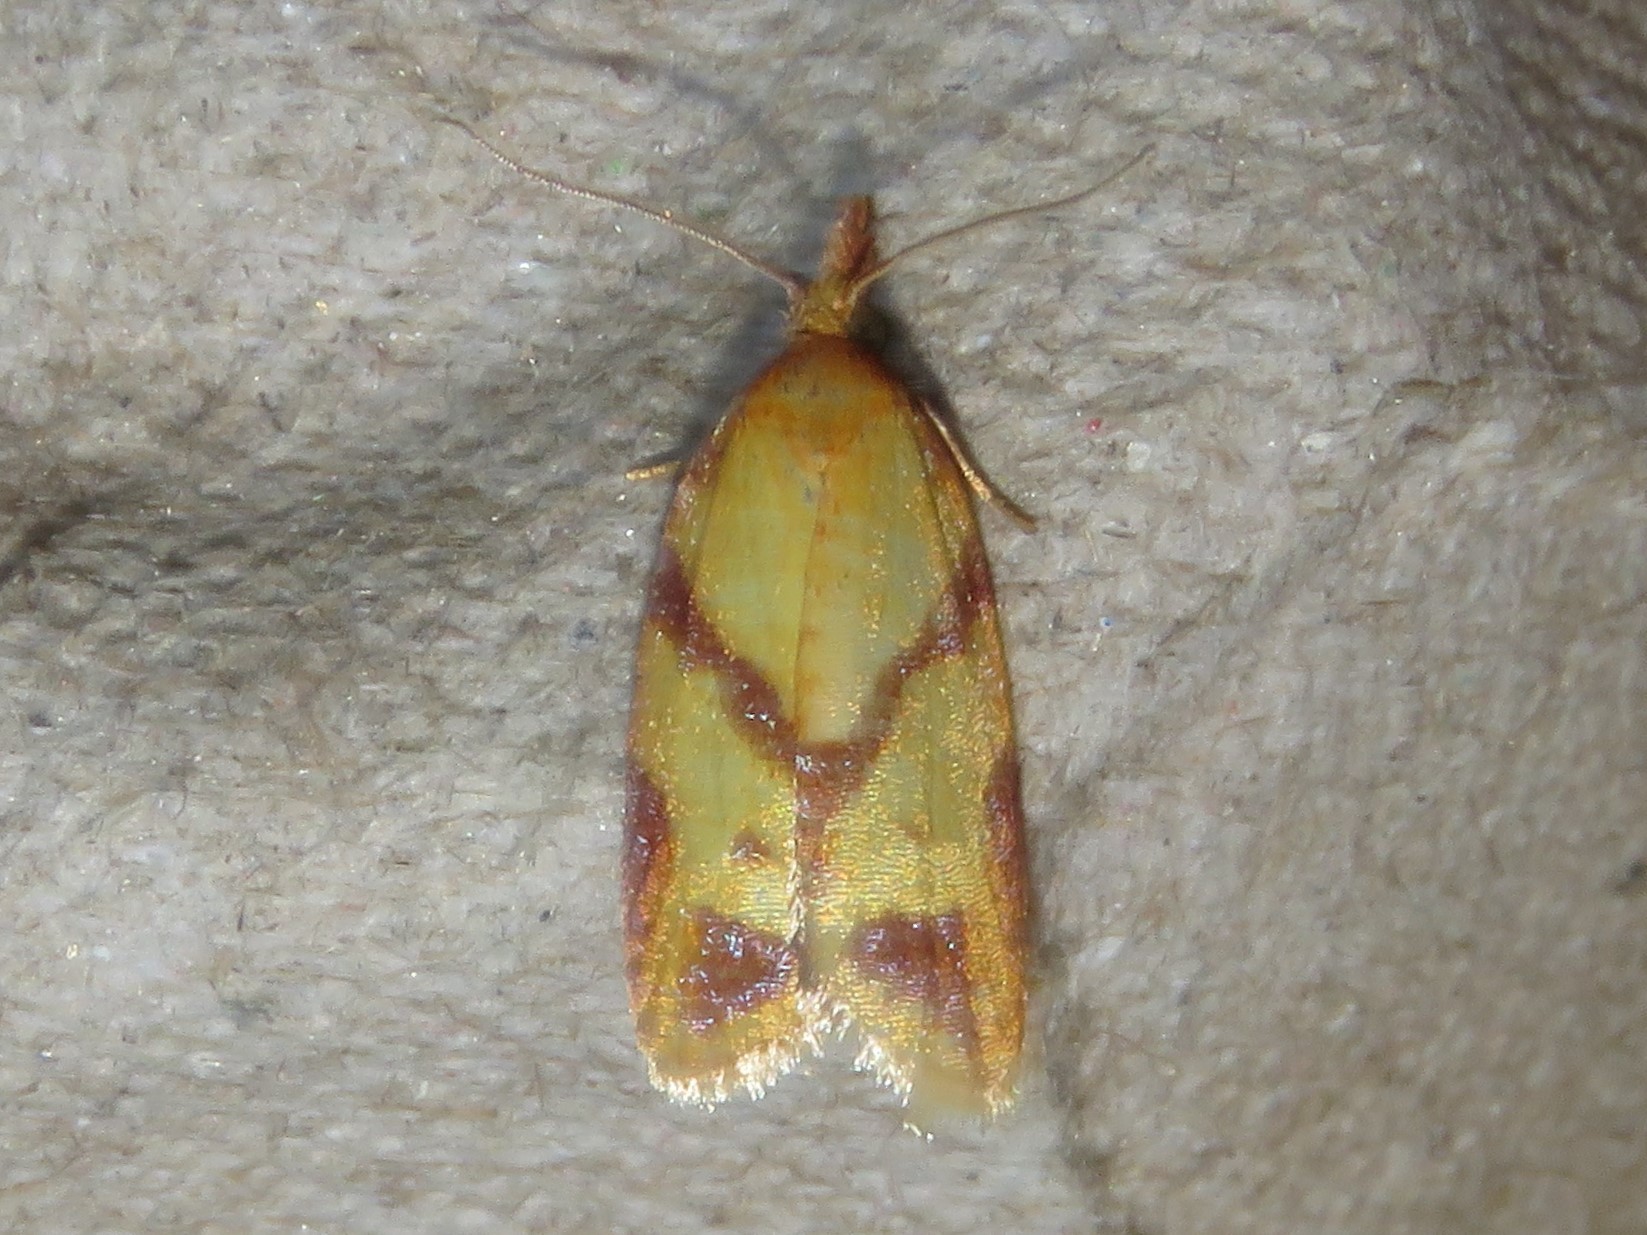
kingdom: Animalia
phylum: Arthropoda
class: Insecta
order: Lepidoptera
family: Tortricidae
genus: Sparganothis
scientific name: Sparganothis unifasciana
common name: One-lined sparganothis moth
